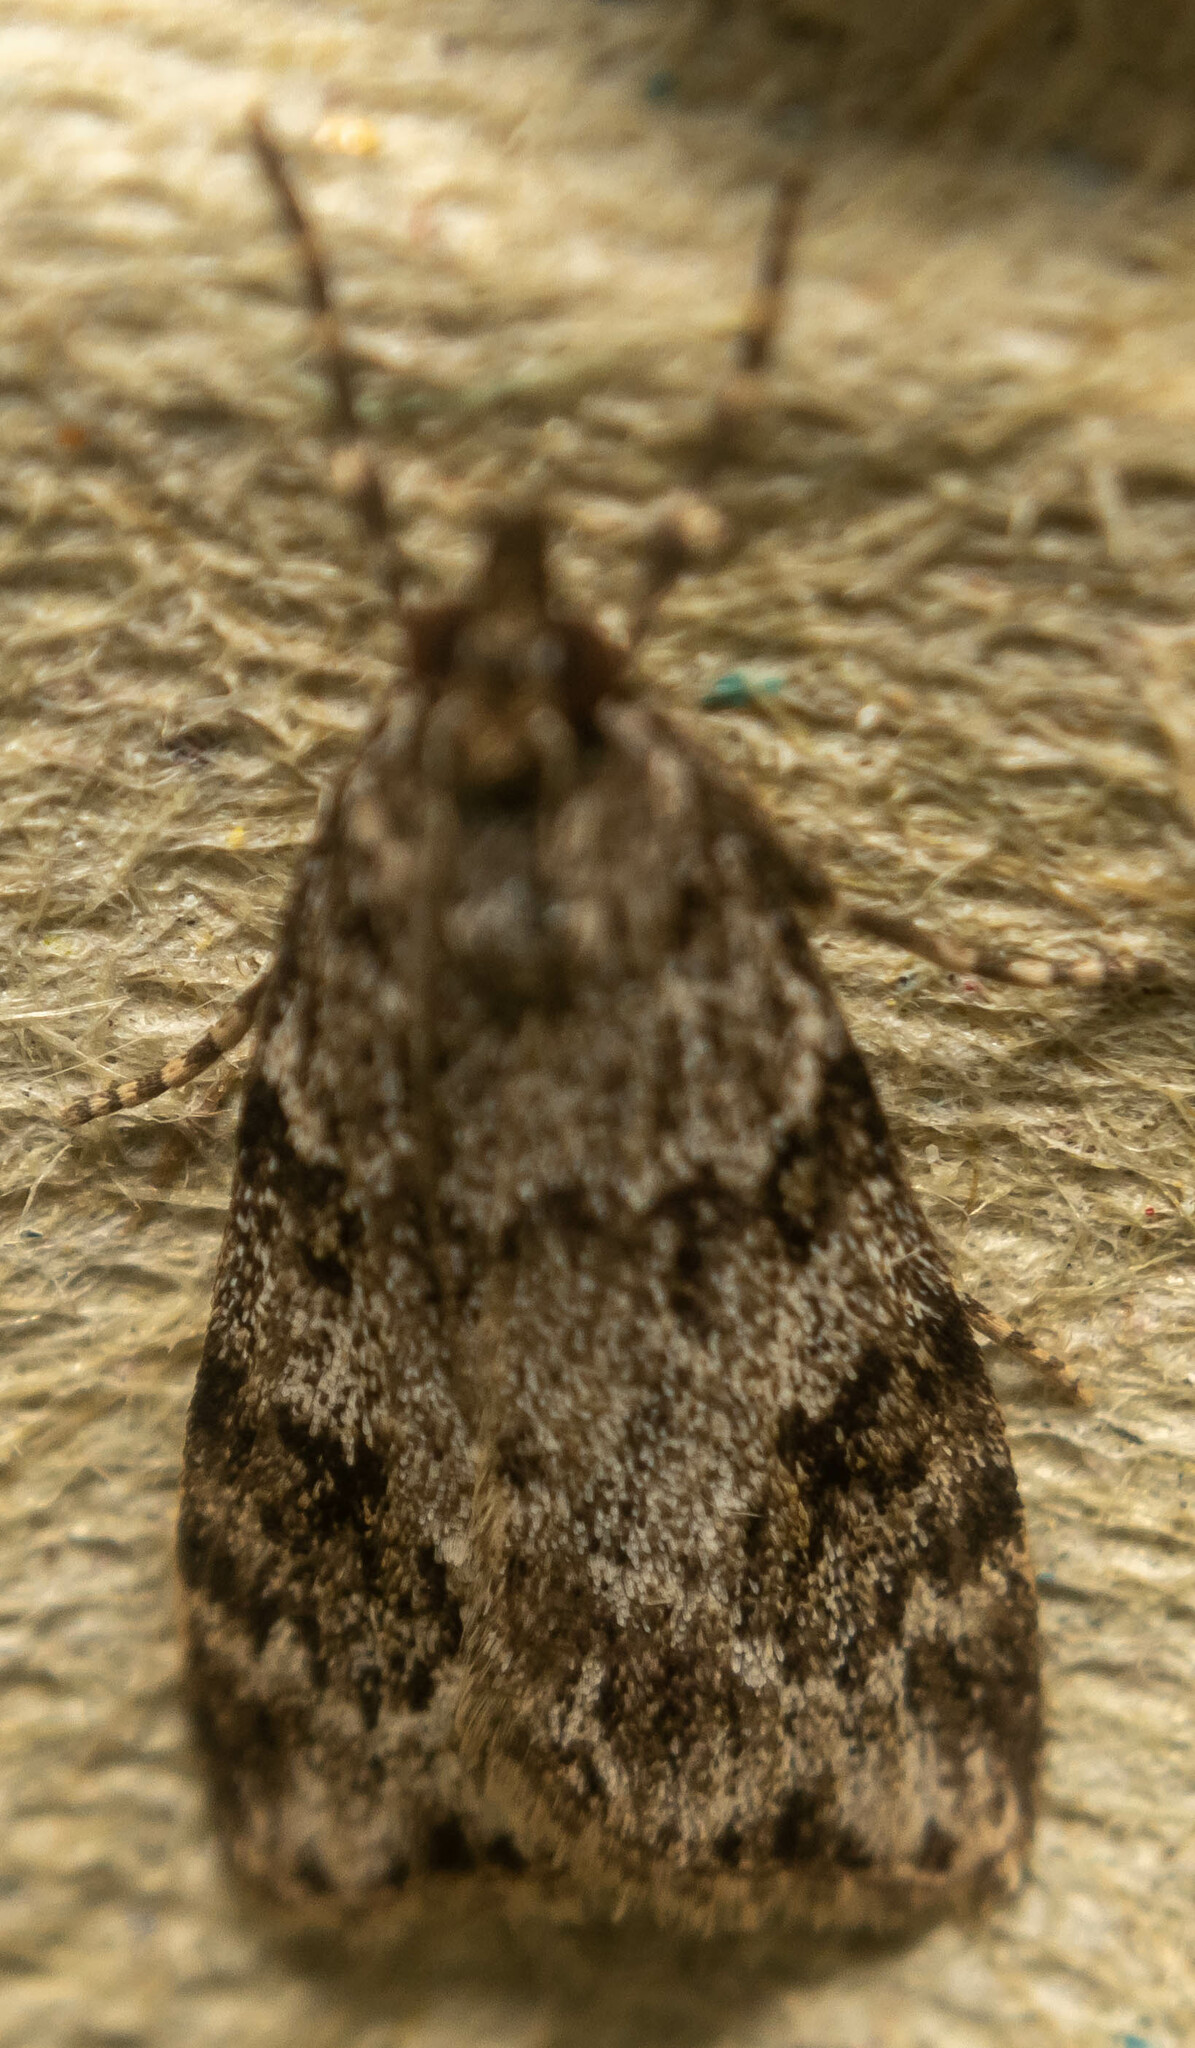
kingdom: Animalia
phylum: Arthropoda
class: Insecta
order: Lepidoptera
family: Crambidae
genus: Scoparia
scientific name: Scoparia ambigualis
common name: Common grey
